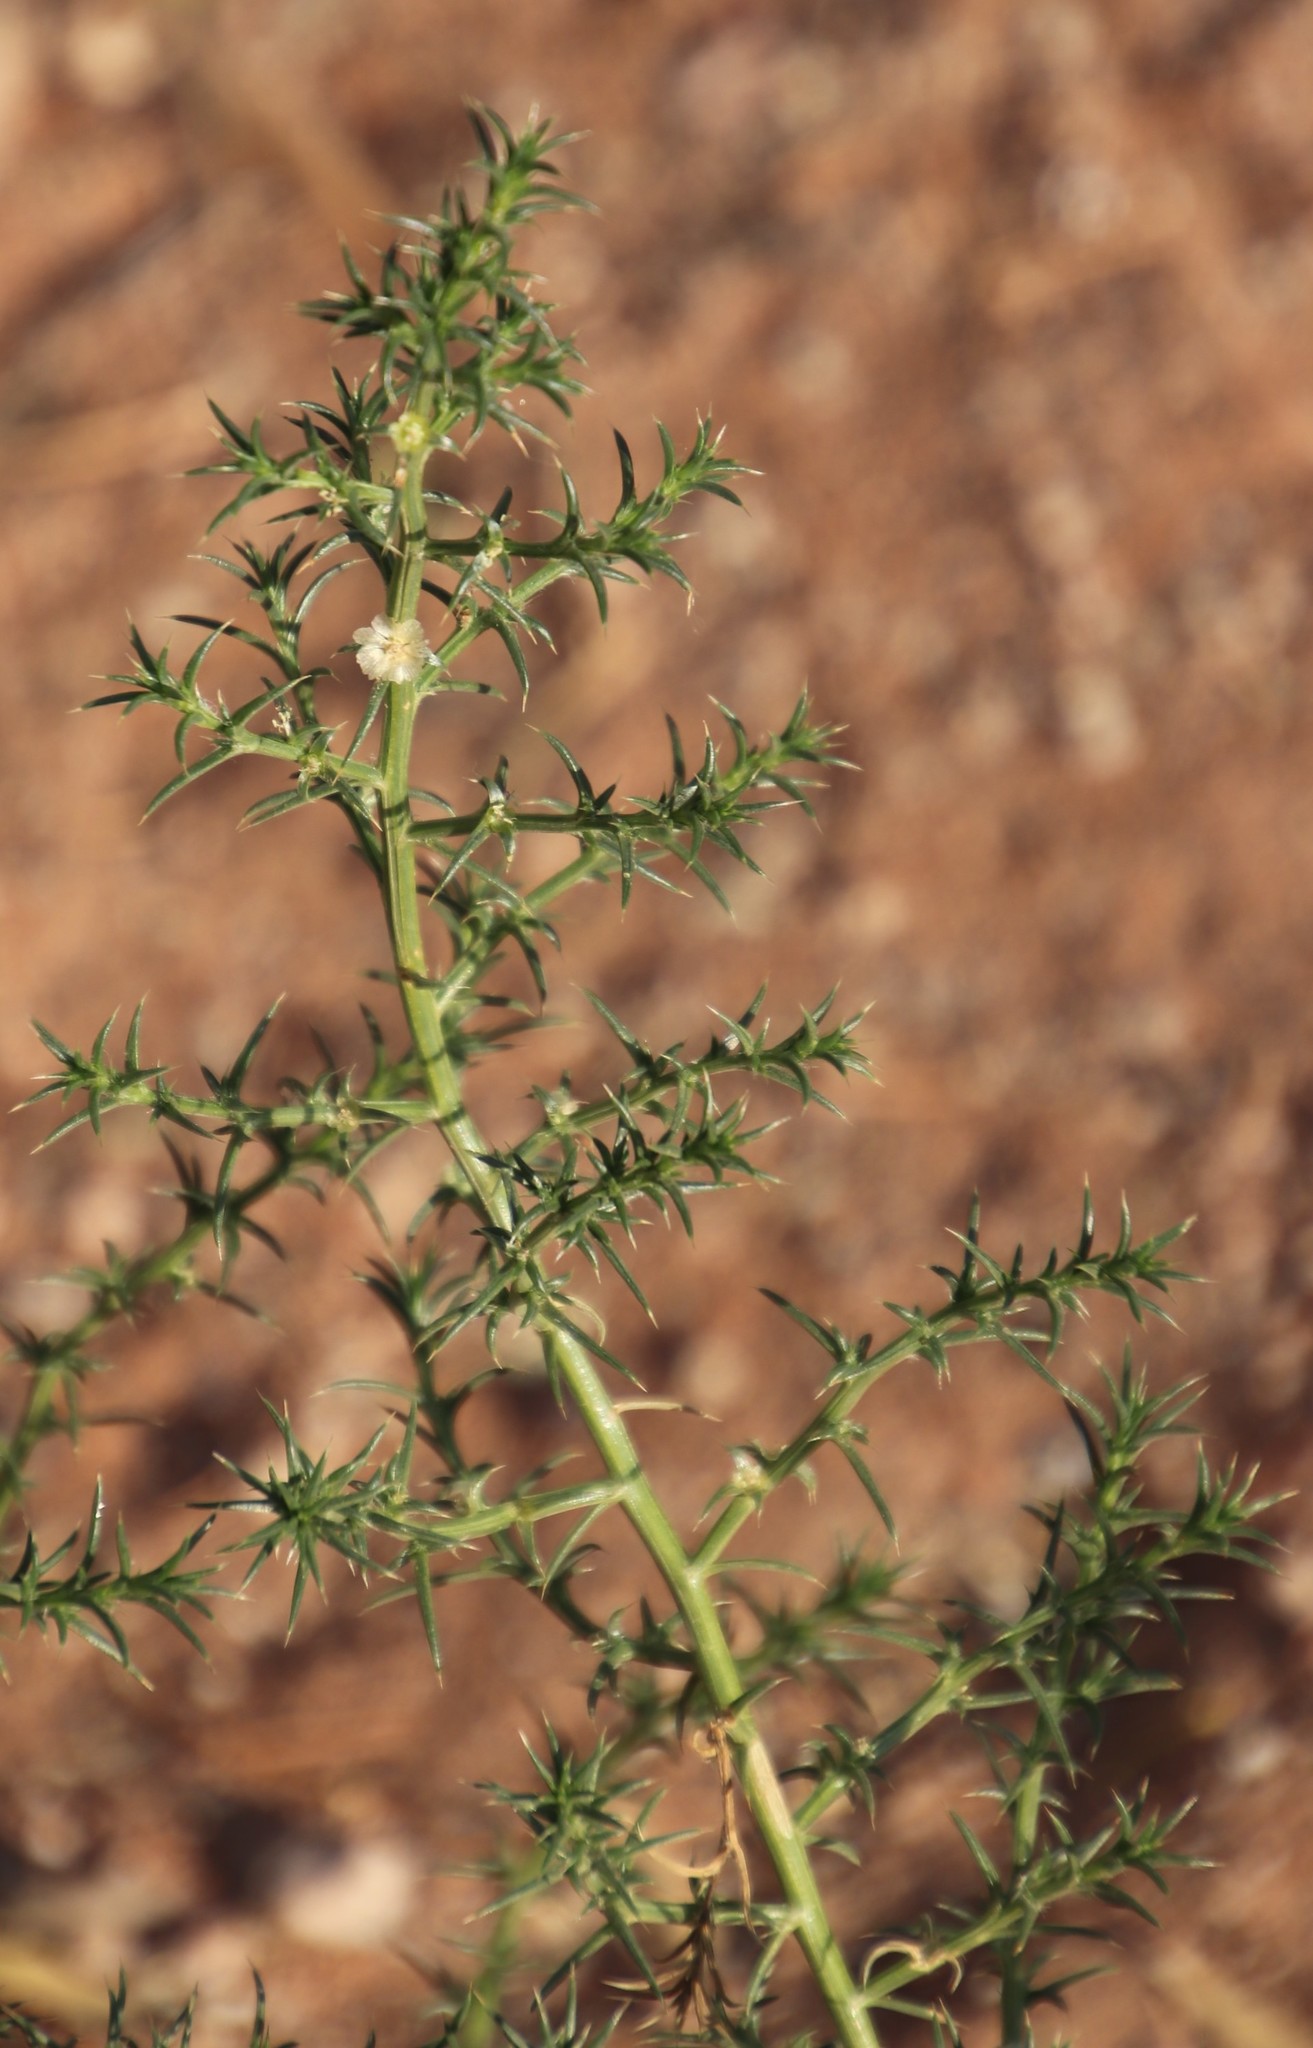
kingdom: Plantae
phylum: Tracheophyta
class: Magnoliopsida
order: Caryophyllales
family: Amaranthaceae
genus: Salsola
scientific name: Salsola kali
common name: Saltwort
